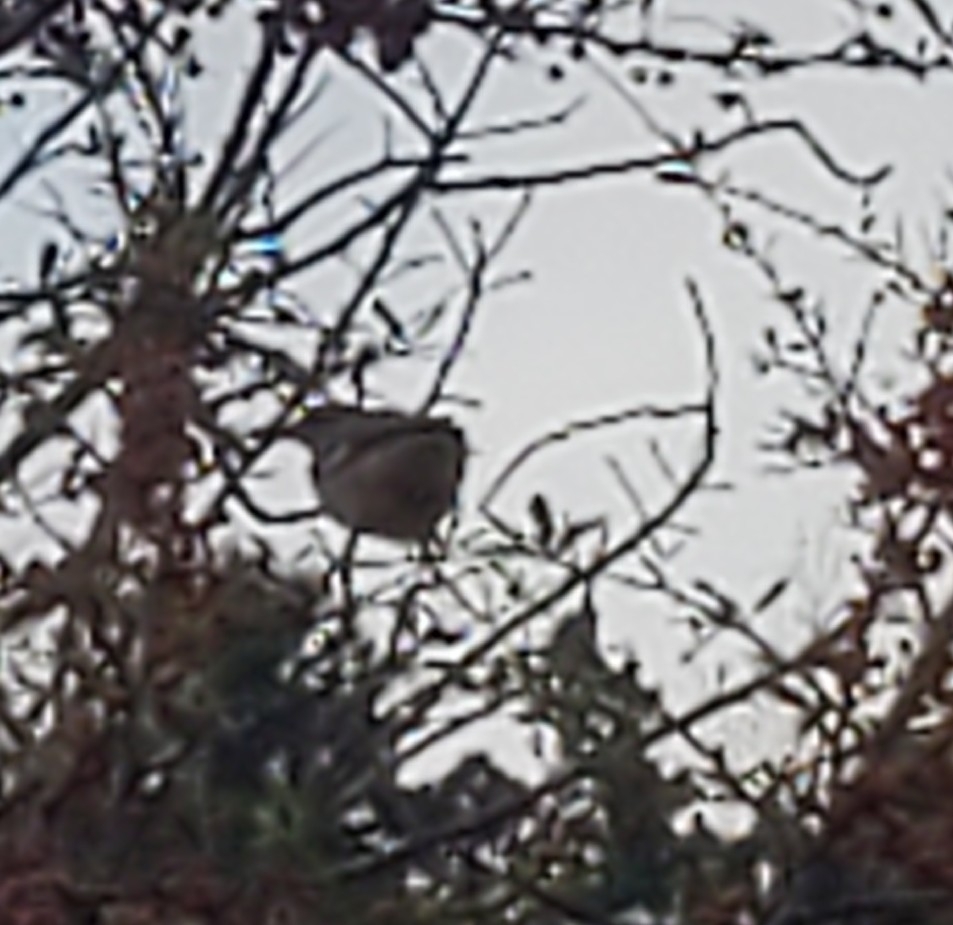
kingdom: Animalia
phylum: Chordata
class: Aves
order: Passeriformes
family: Mimidae
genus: Mimus
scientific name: Mimus polyglottos
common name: Northern mockingbird
